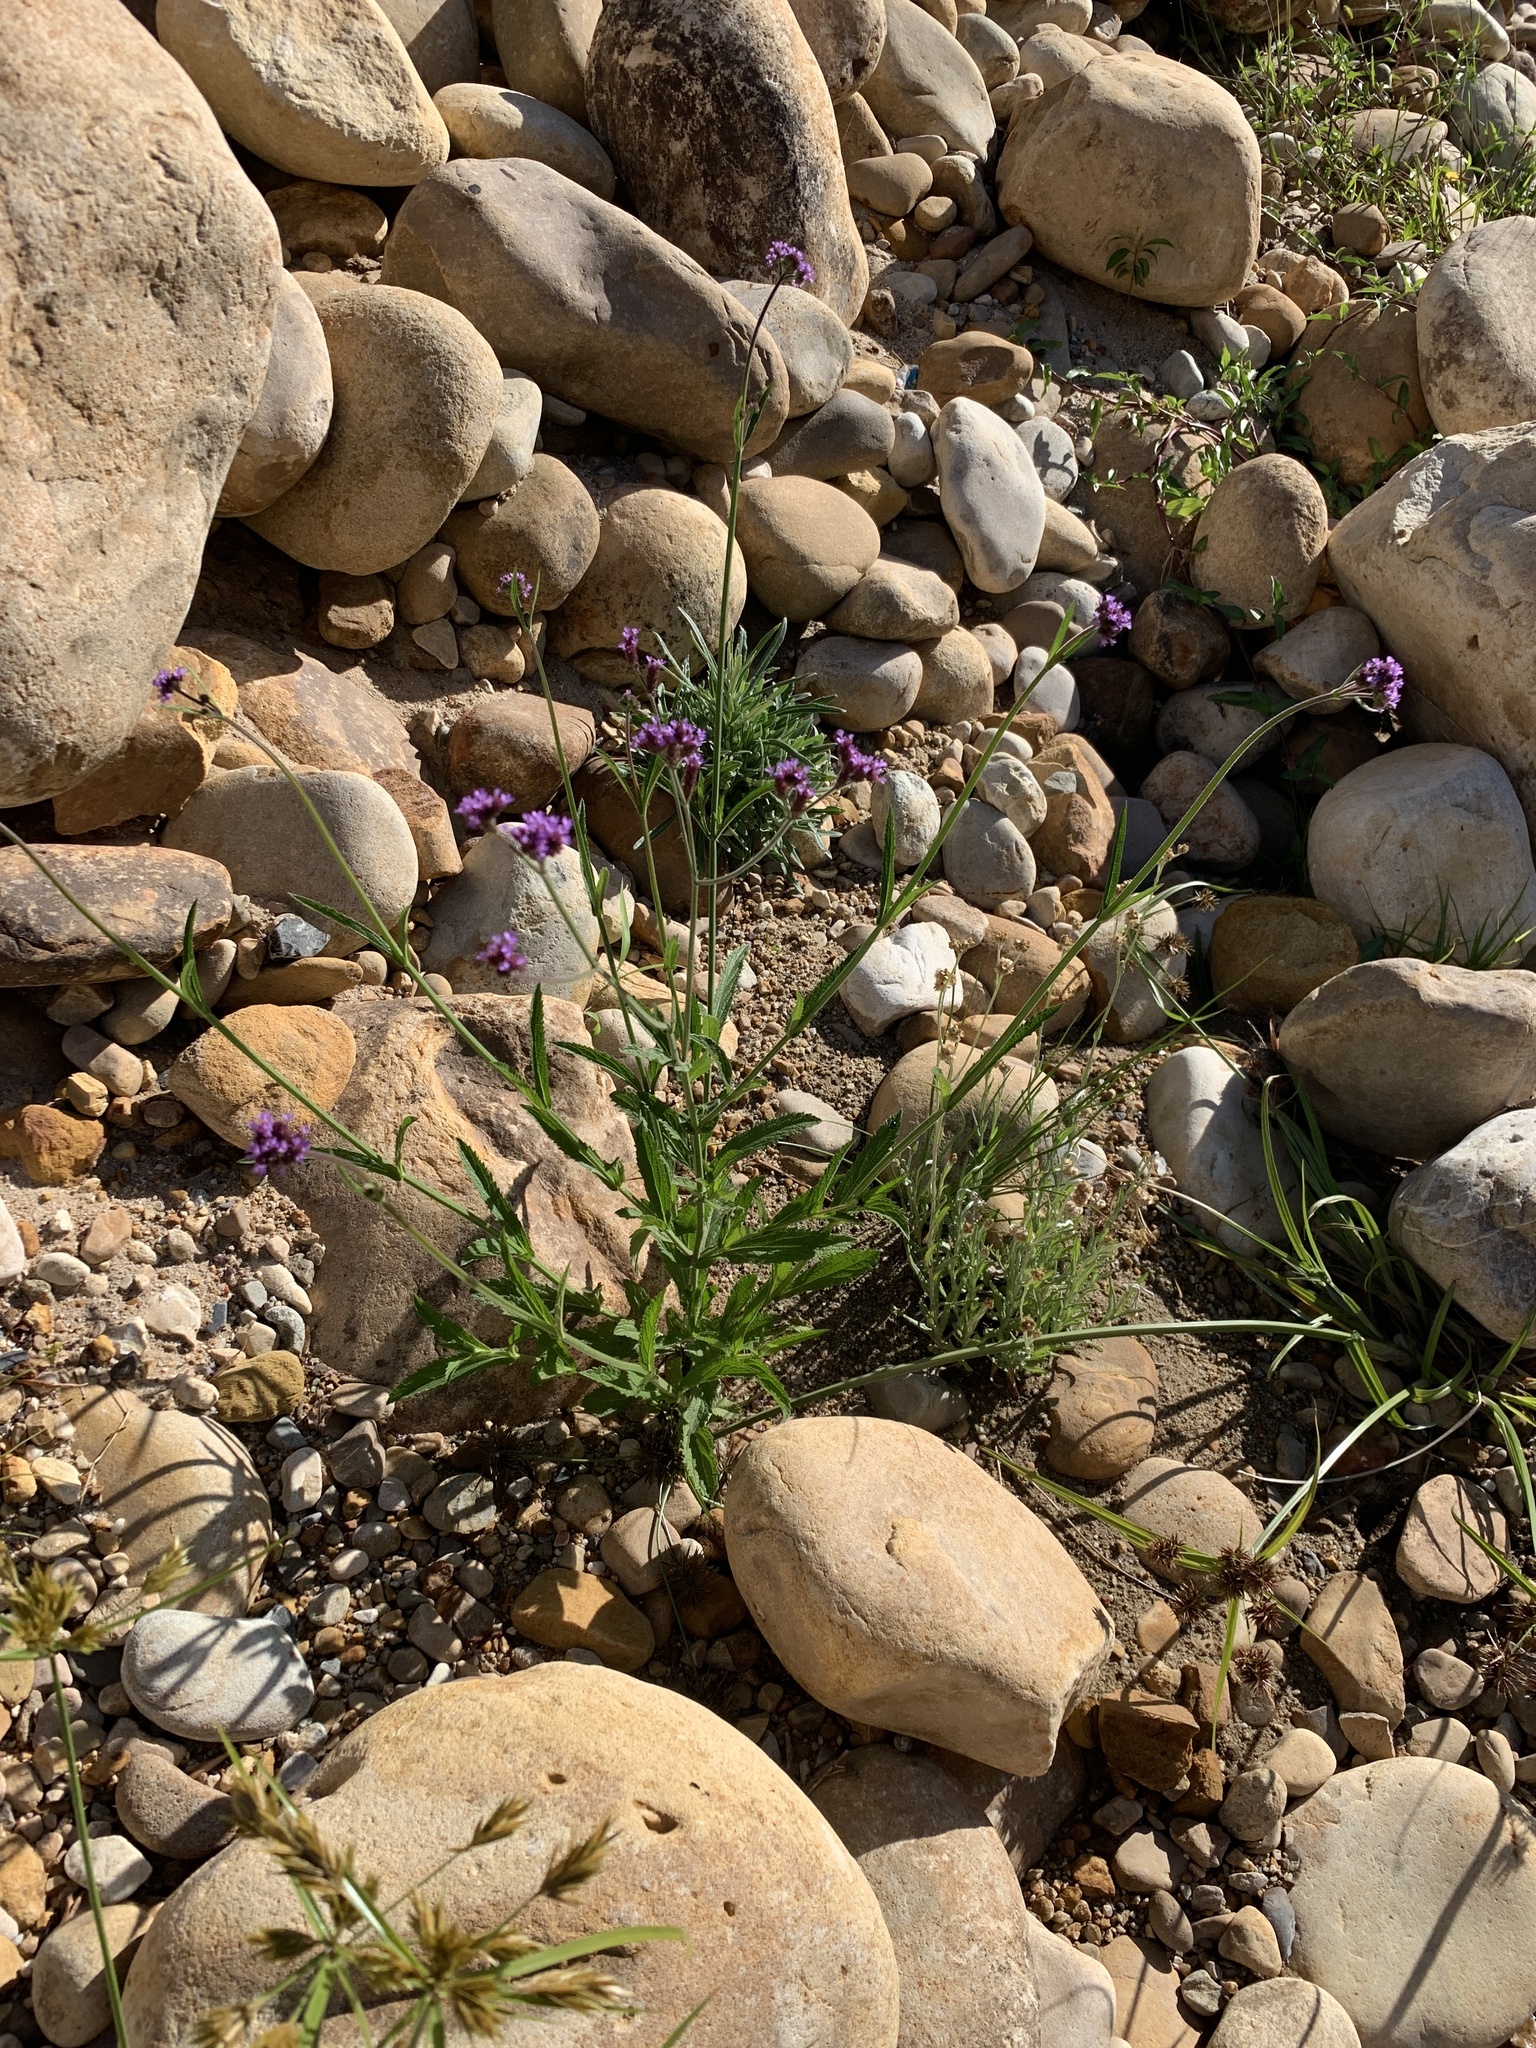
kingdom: Plantae
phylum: Tracheophyta
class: Magnoliopsida
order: Lamiales
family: Verbenaceae
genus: Verbena
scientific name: Verbena bonariensis
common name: Purpletop vervain
